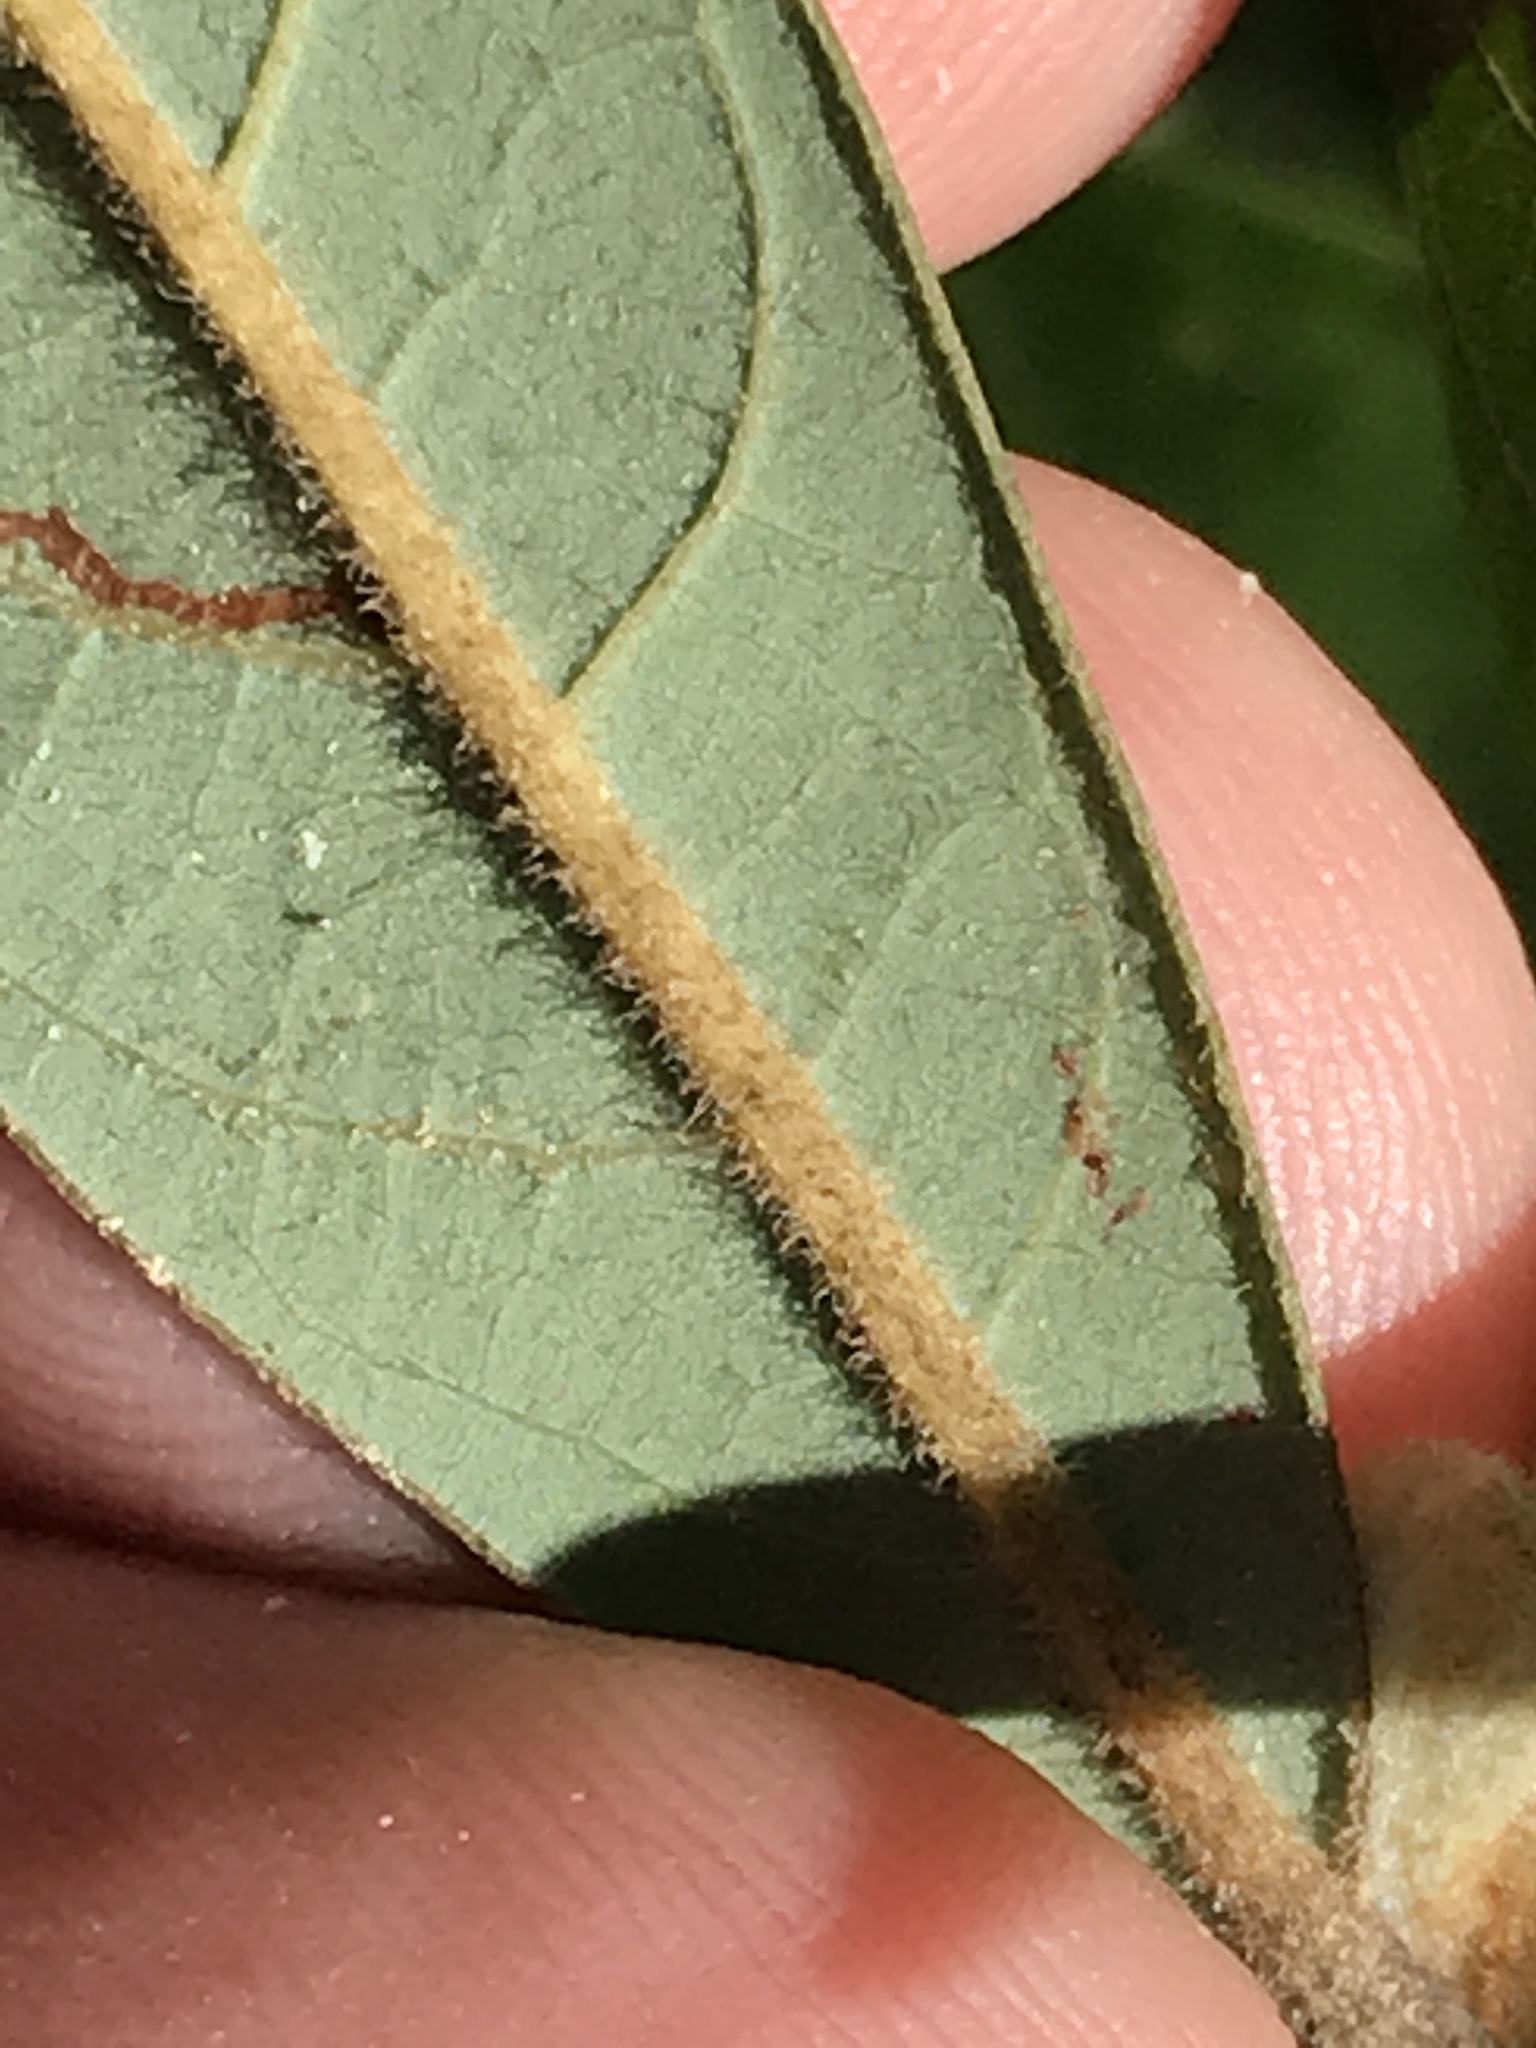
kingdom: Plantae
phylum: Tracheophyta
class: Magnoliopsida
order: Laurales
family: Lauraceae
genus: Persea
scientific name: Persea palustris
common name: Swampbay
